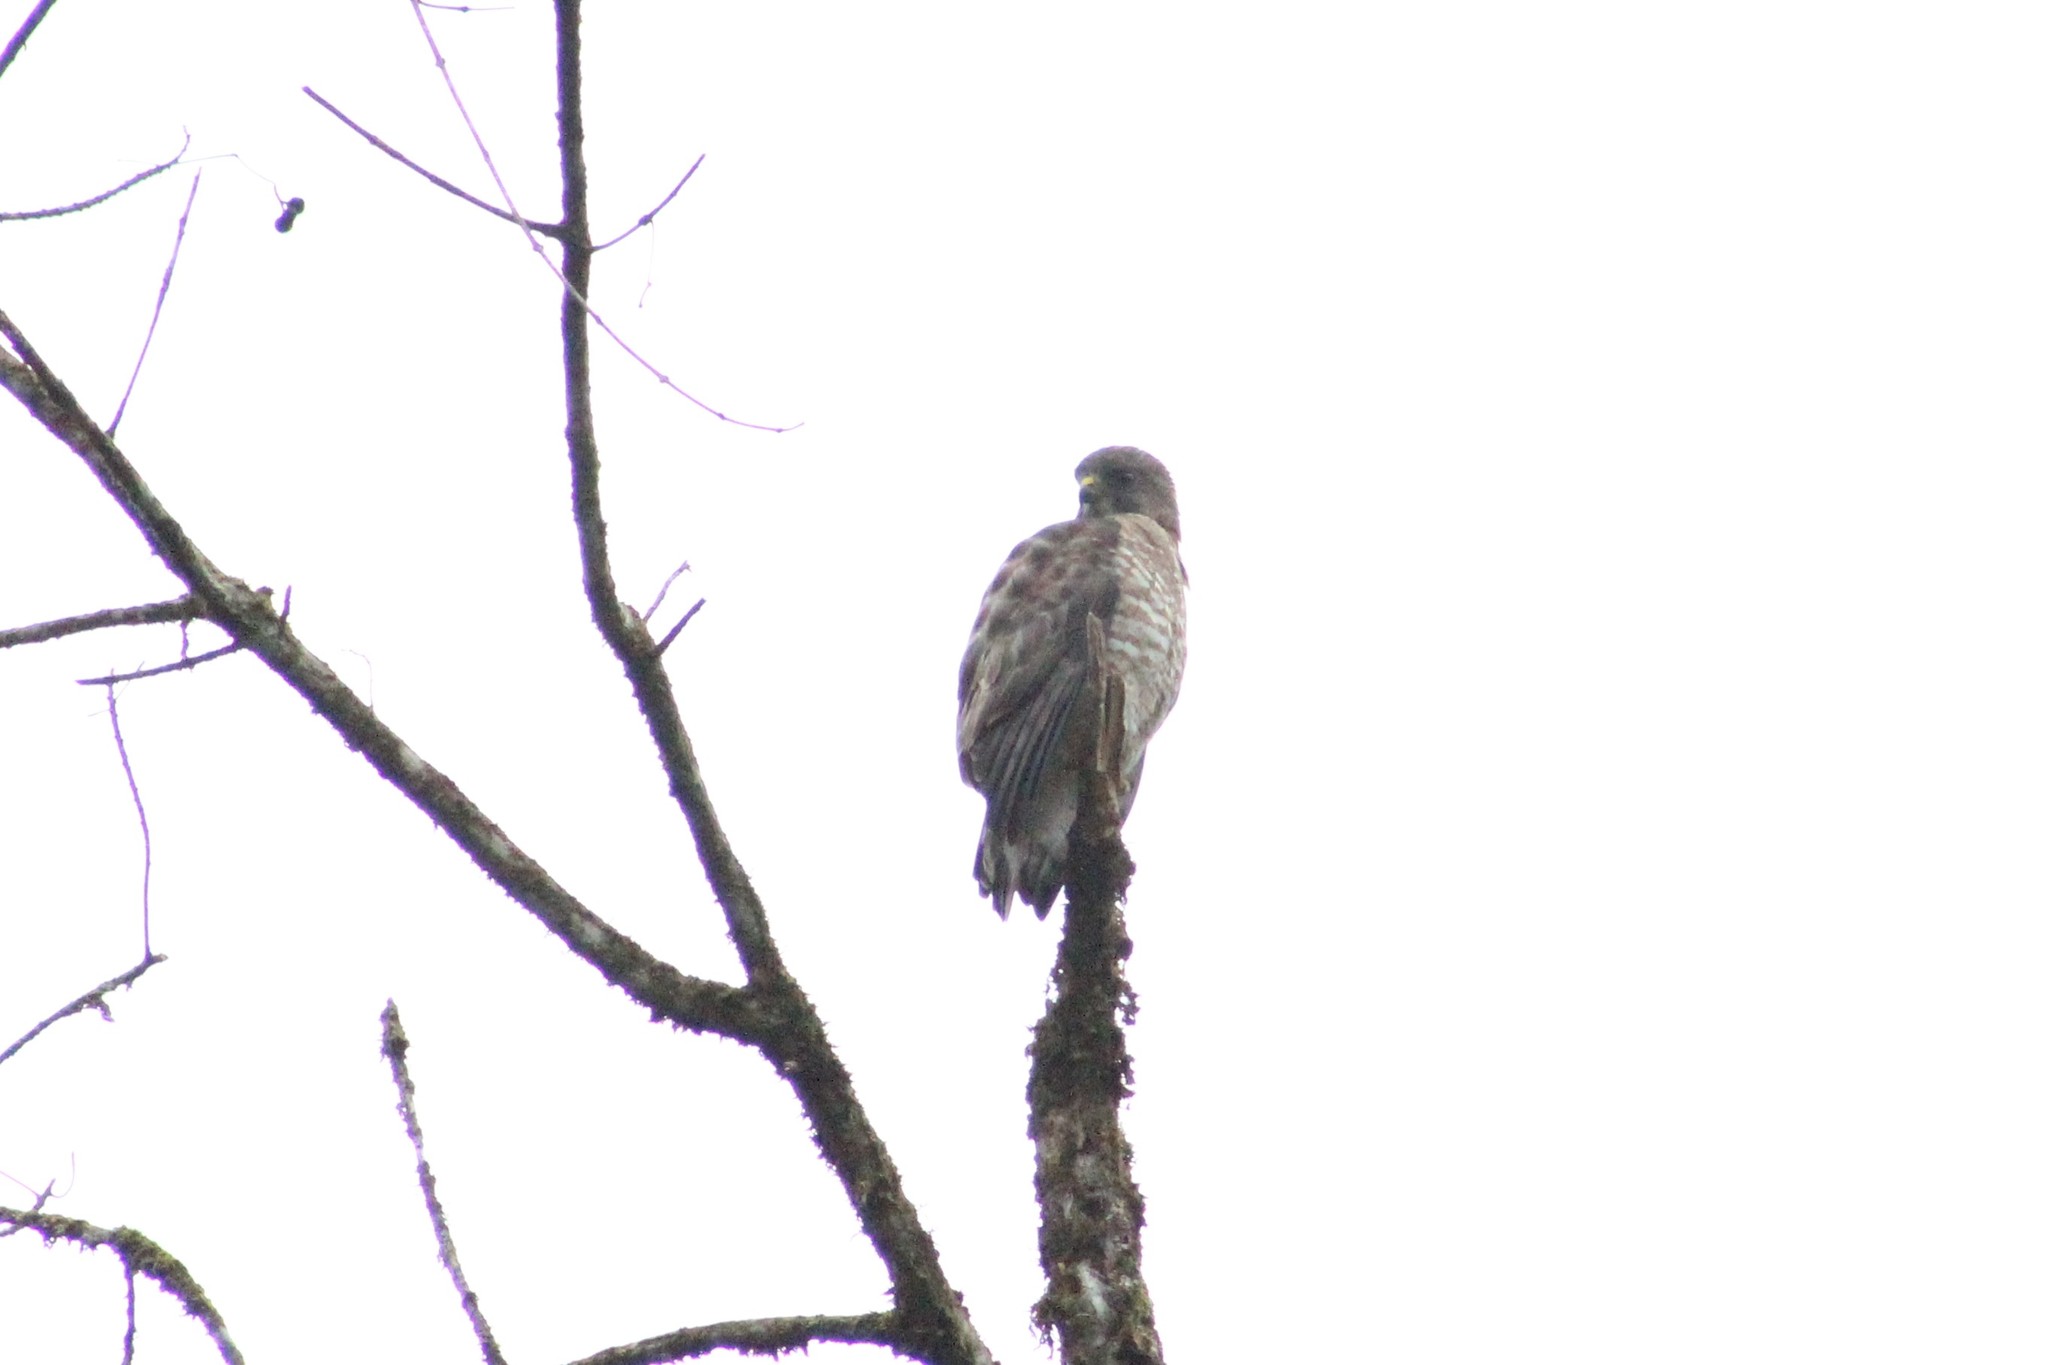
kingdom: Animalia
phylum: Chordata
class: Aves
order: Accipitriformes
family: Accipitridae
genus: Buteo
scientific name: Buteo platypterus
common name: Broad-winged hawk
